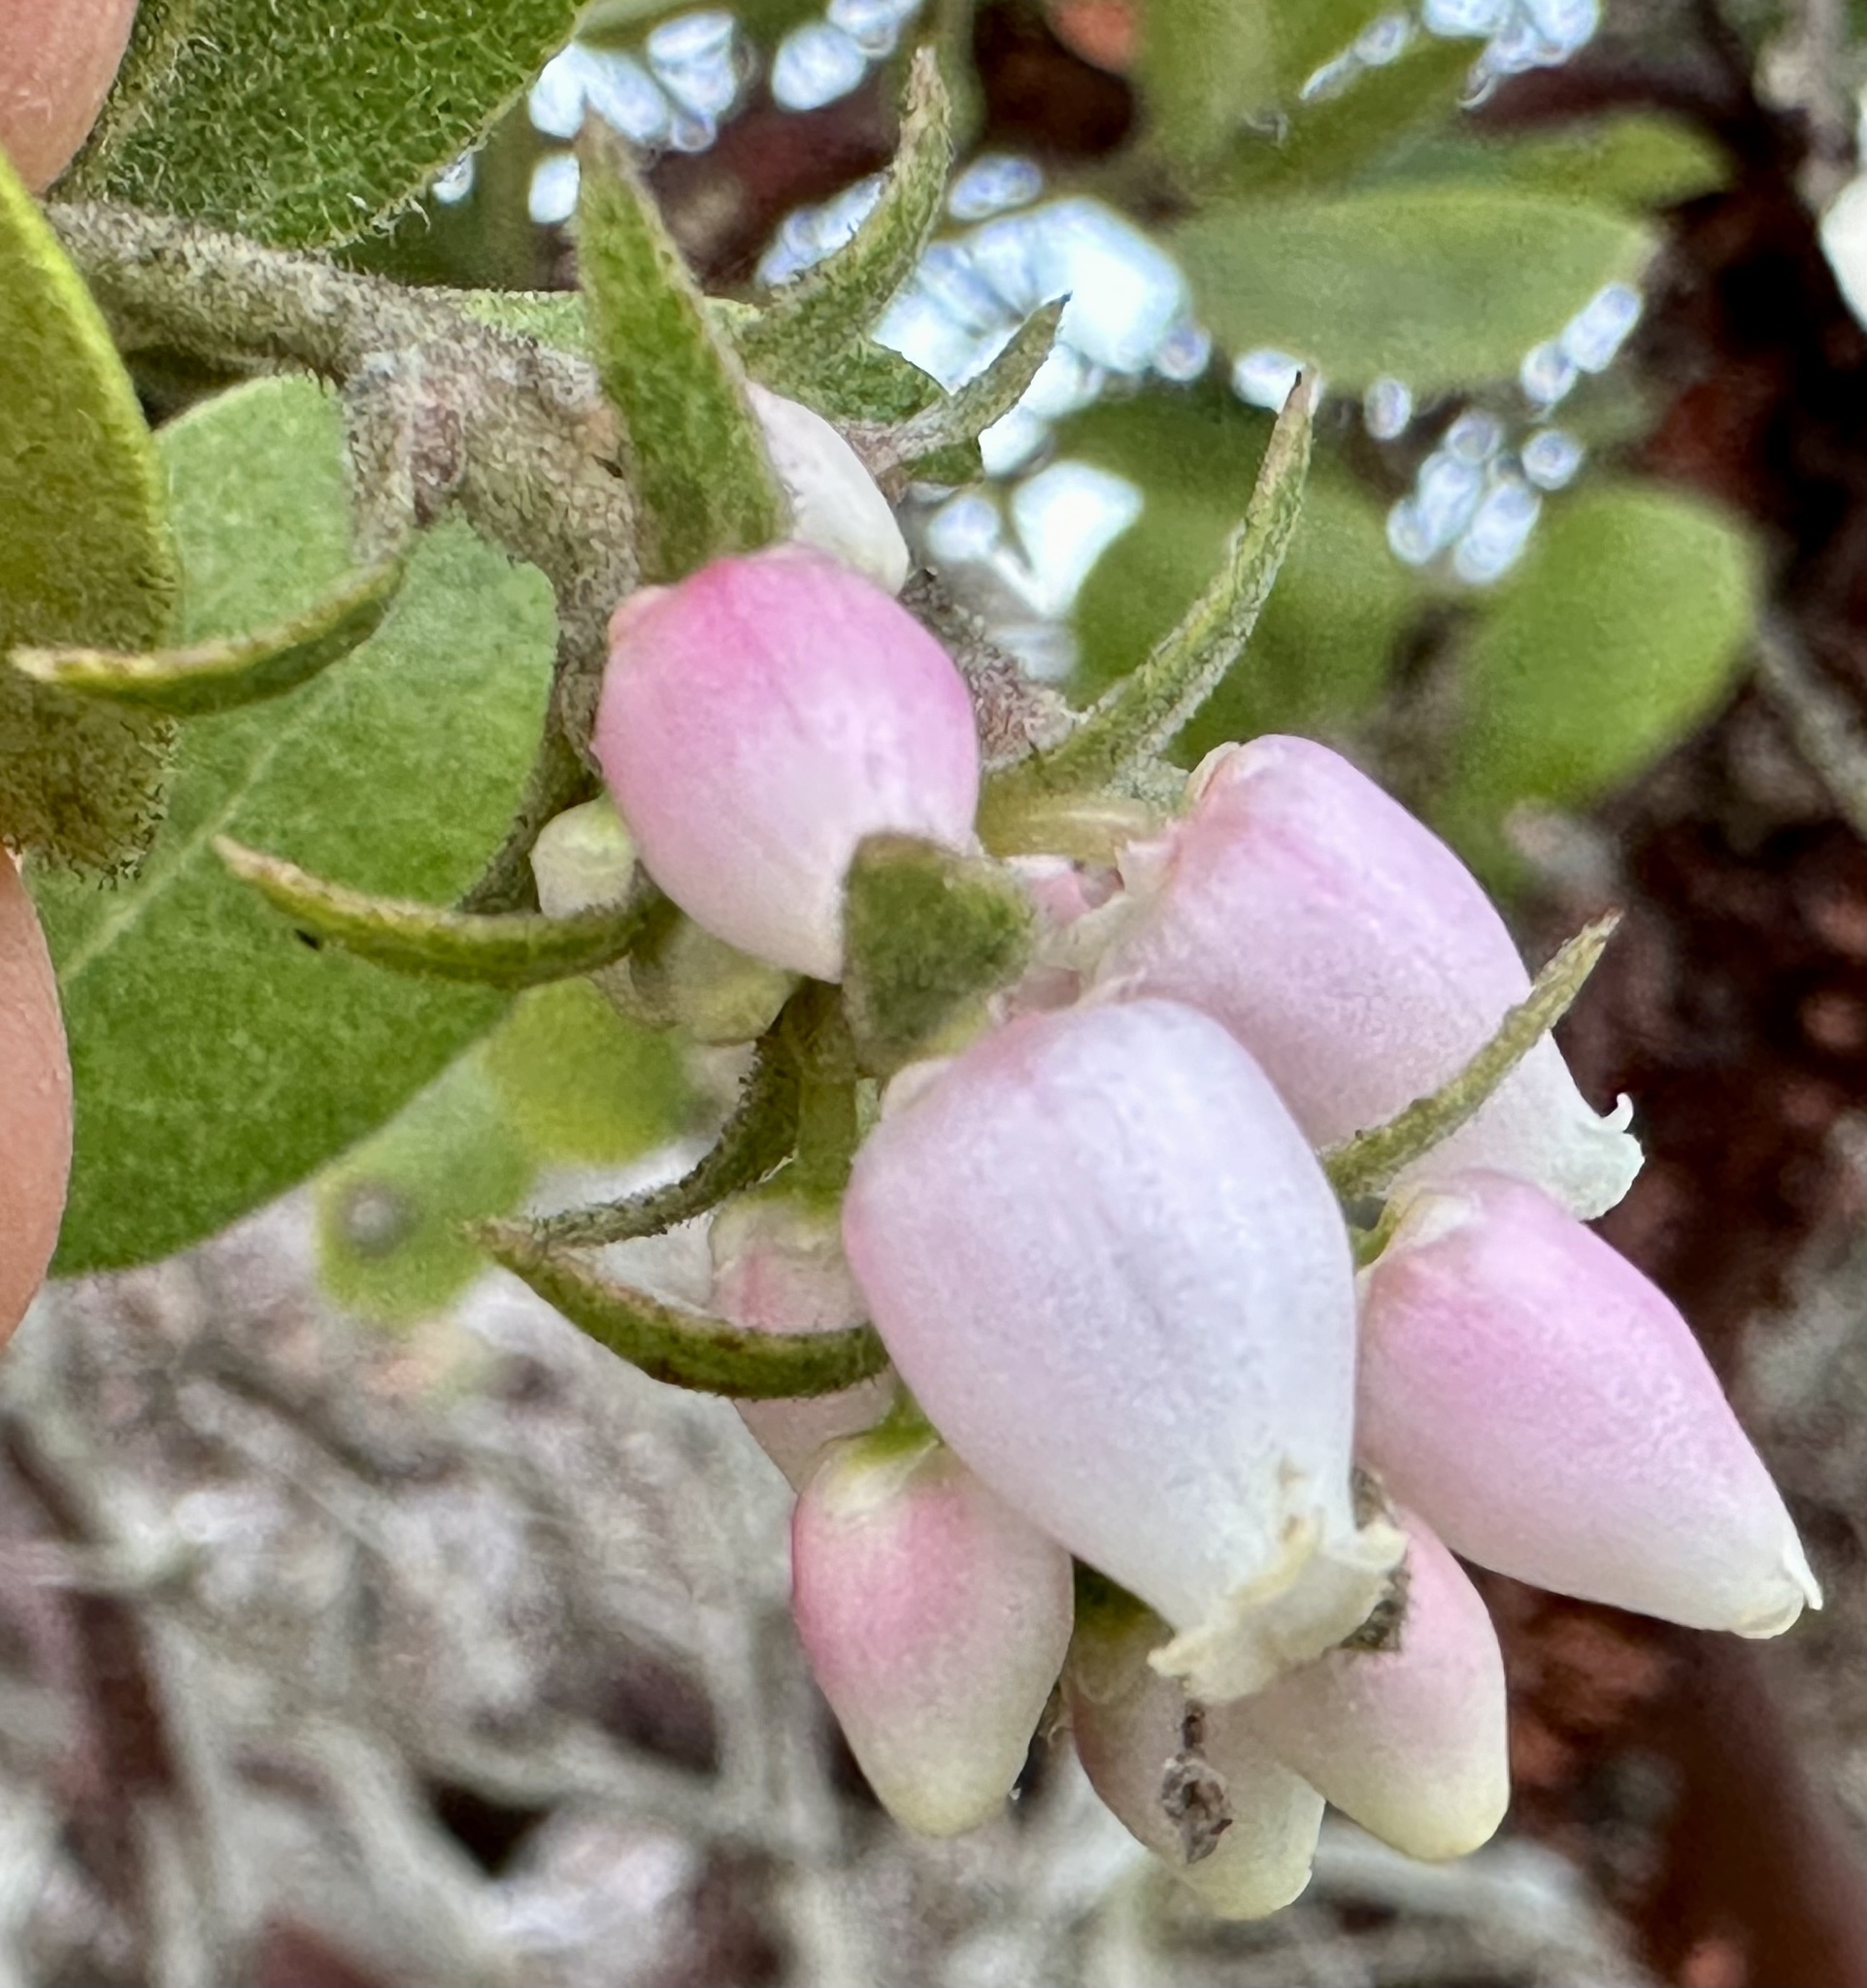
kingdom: Plantae
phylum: Tracheophyta
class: Magnoliopsida
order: Ericales
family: Ericaceae
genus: Arctostaphylos
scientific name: Arctostaphylos tomentosa
